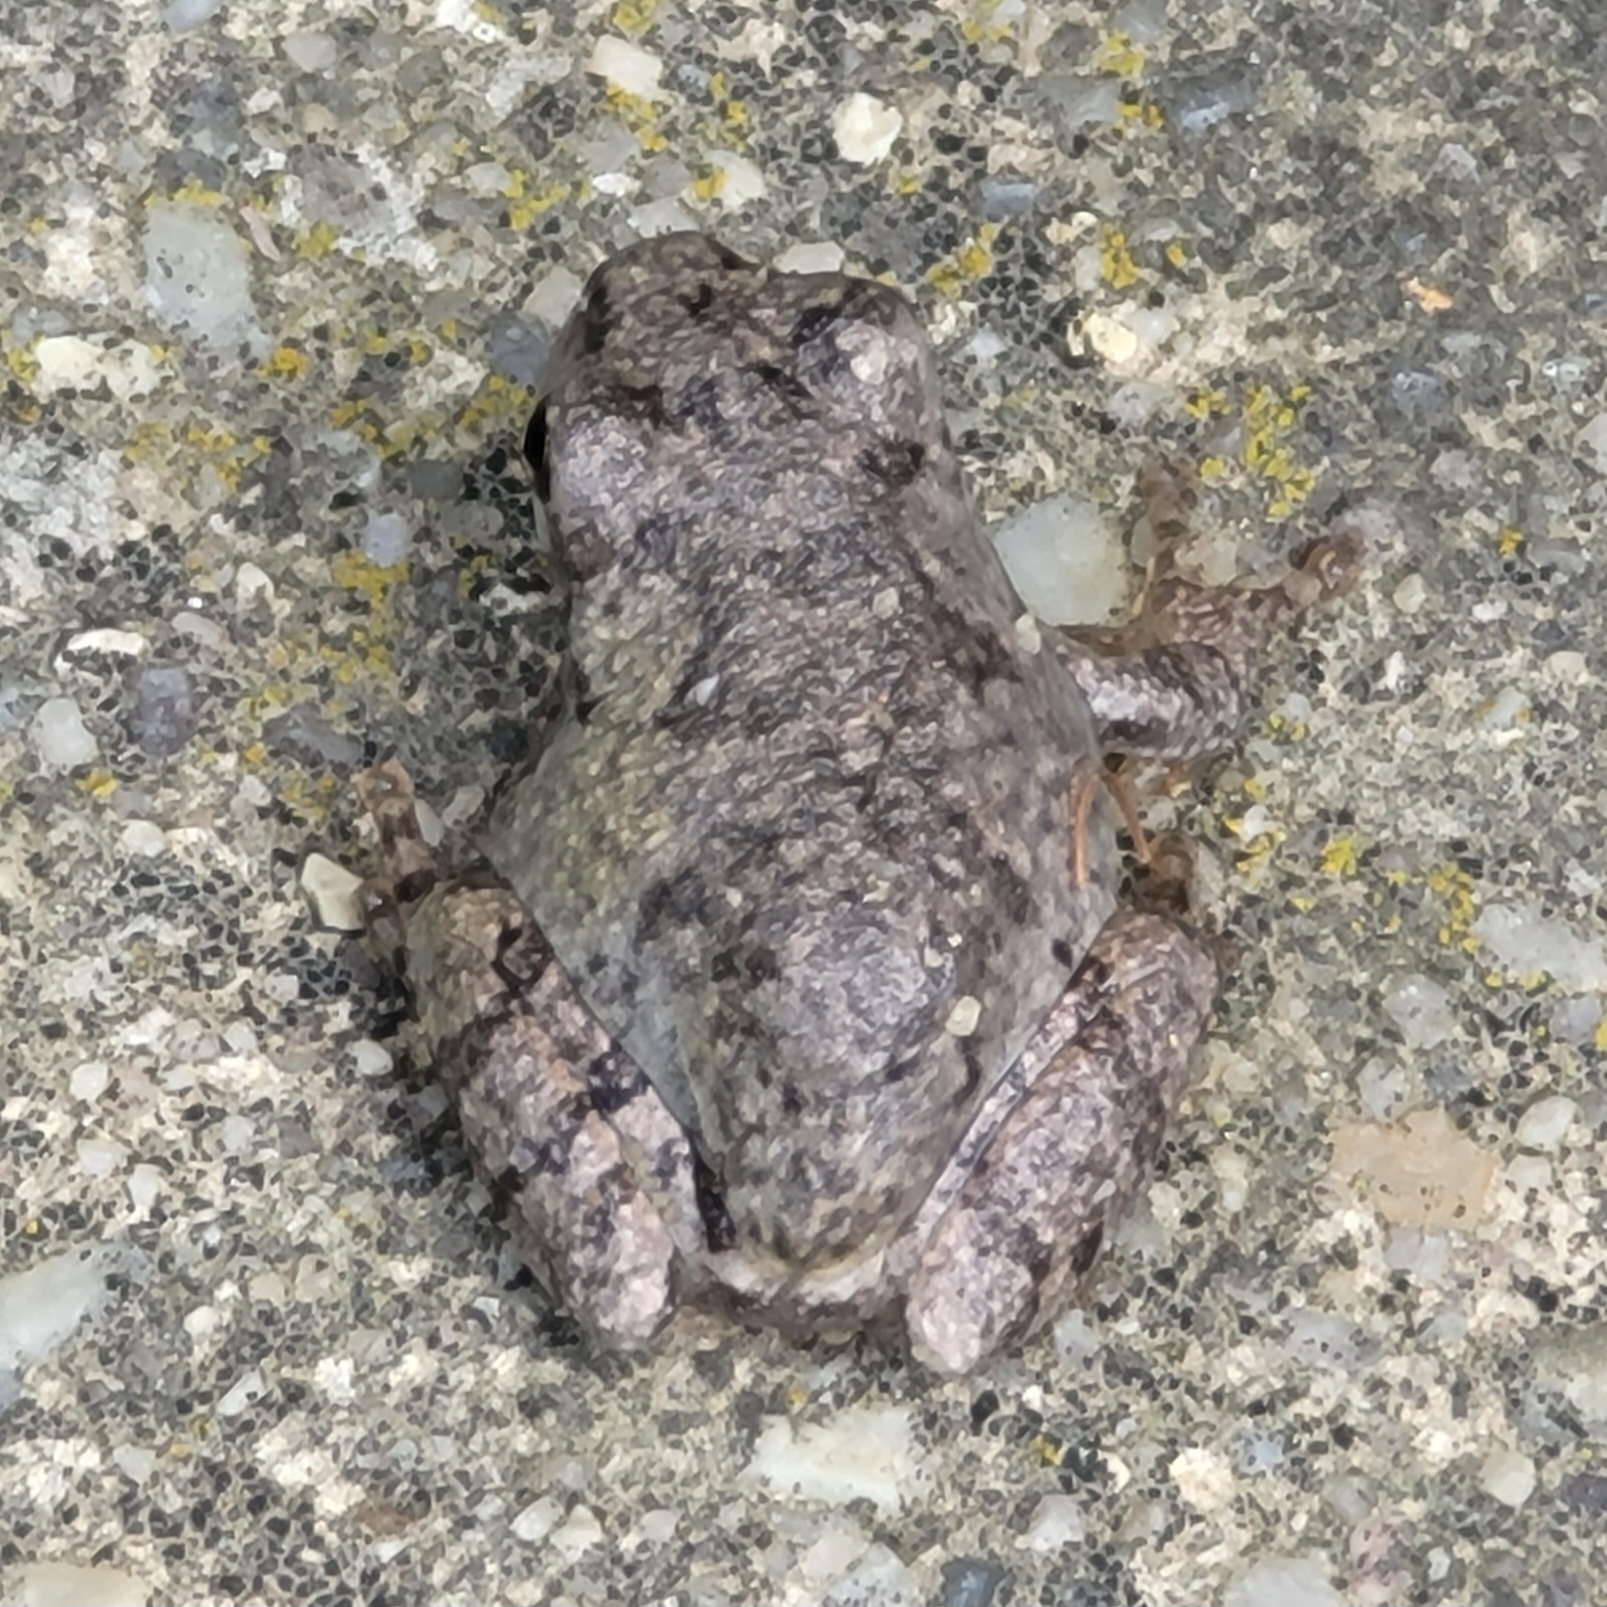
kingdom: Animalia
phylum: Chordata
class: Amphibia
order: Anura
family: Hylidae
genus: Hyla
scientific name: Hyla
